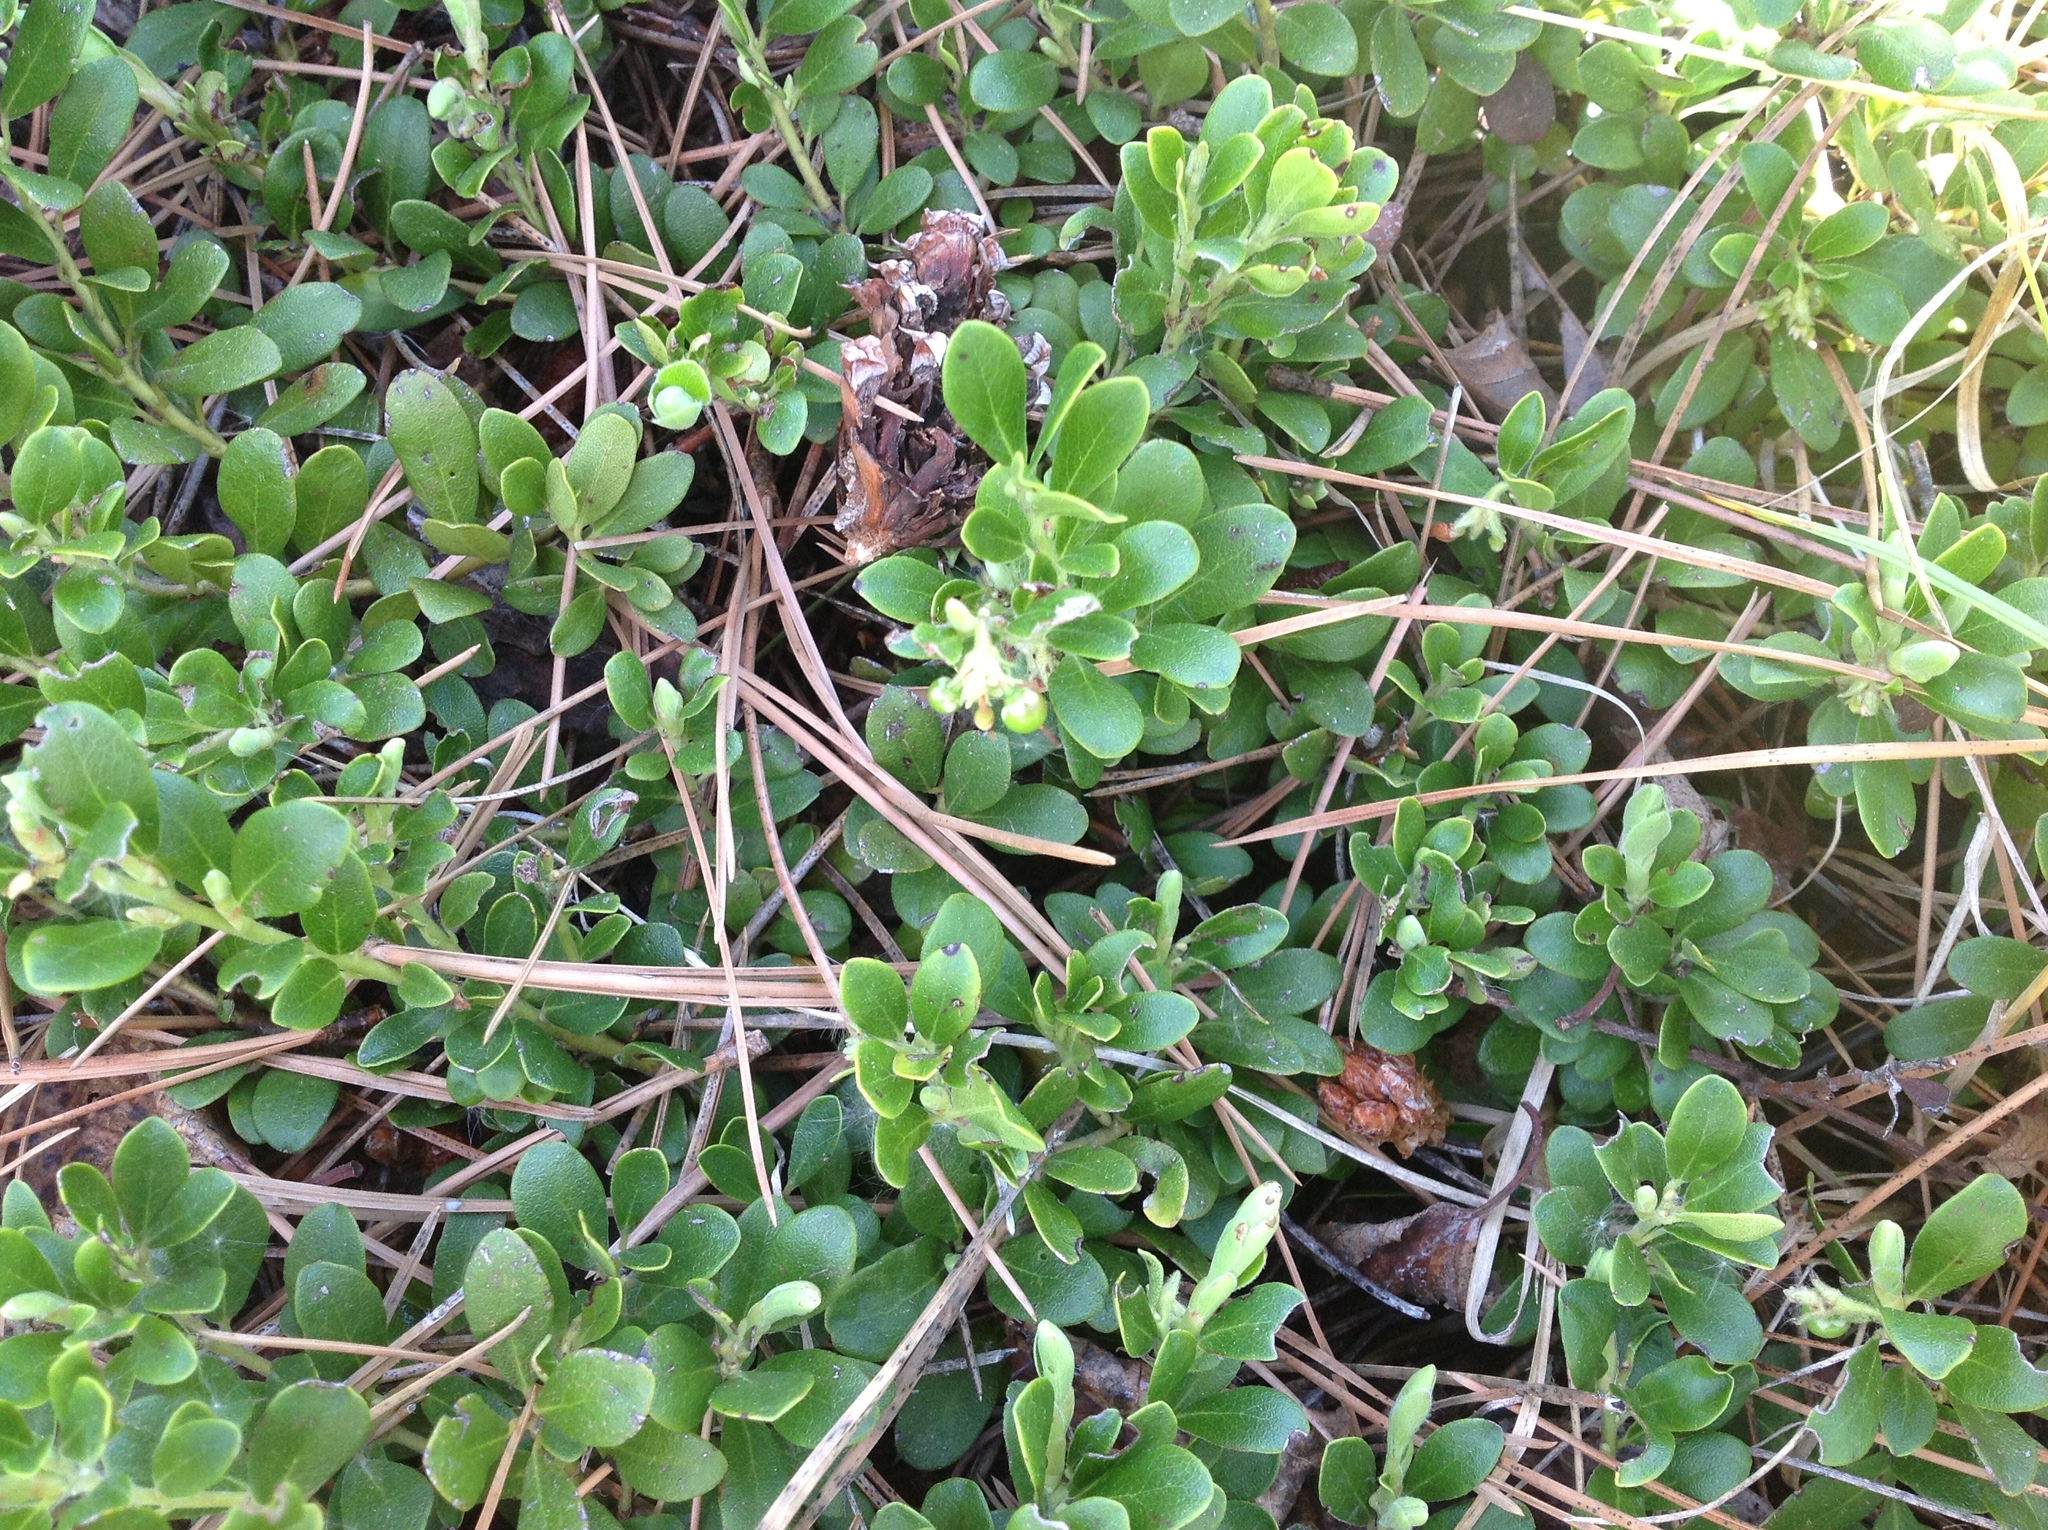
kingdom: Plantae
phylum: Tracheophyta
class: Magnoliopsida
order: Ericales
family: Ericaceae
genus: Arctostaphylos
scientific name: Arctostaphylos uva-ursi
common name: Bearberry
